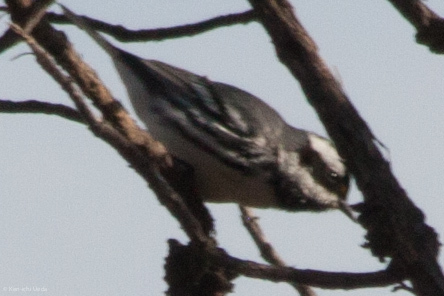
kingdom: Animalia
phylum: Chordata
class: Aves
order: Passeriformes
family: Parulidae
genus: Setophaga
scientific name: Setophaga nigrescens
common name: Black-throated gray warbler
